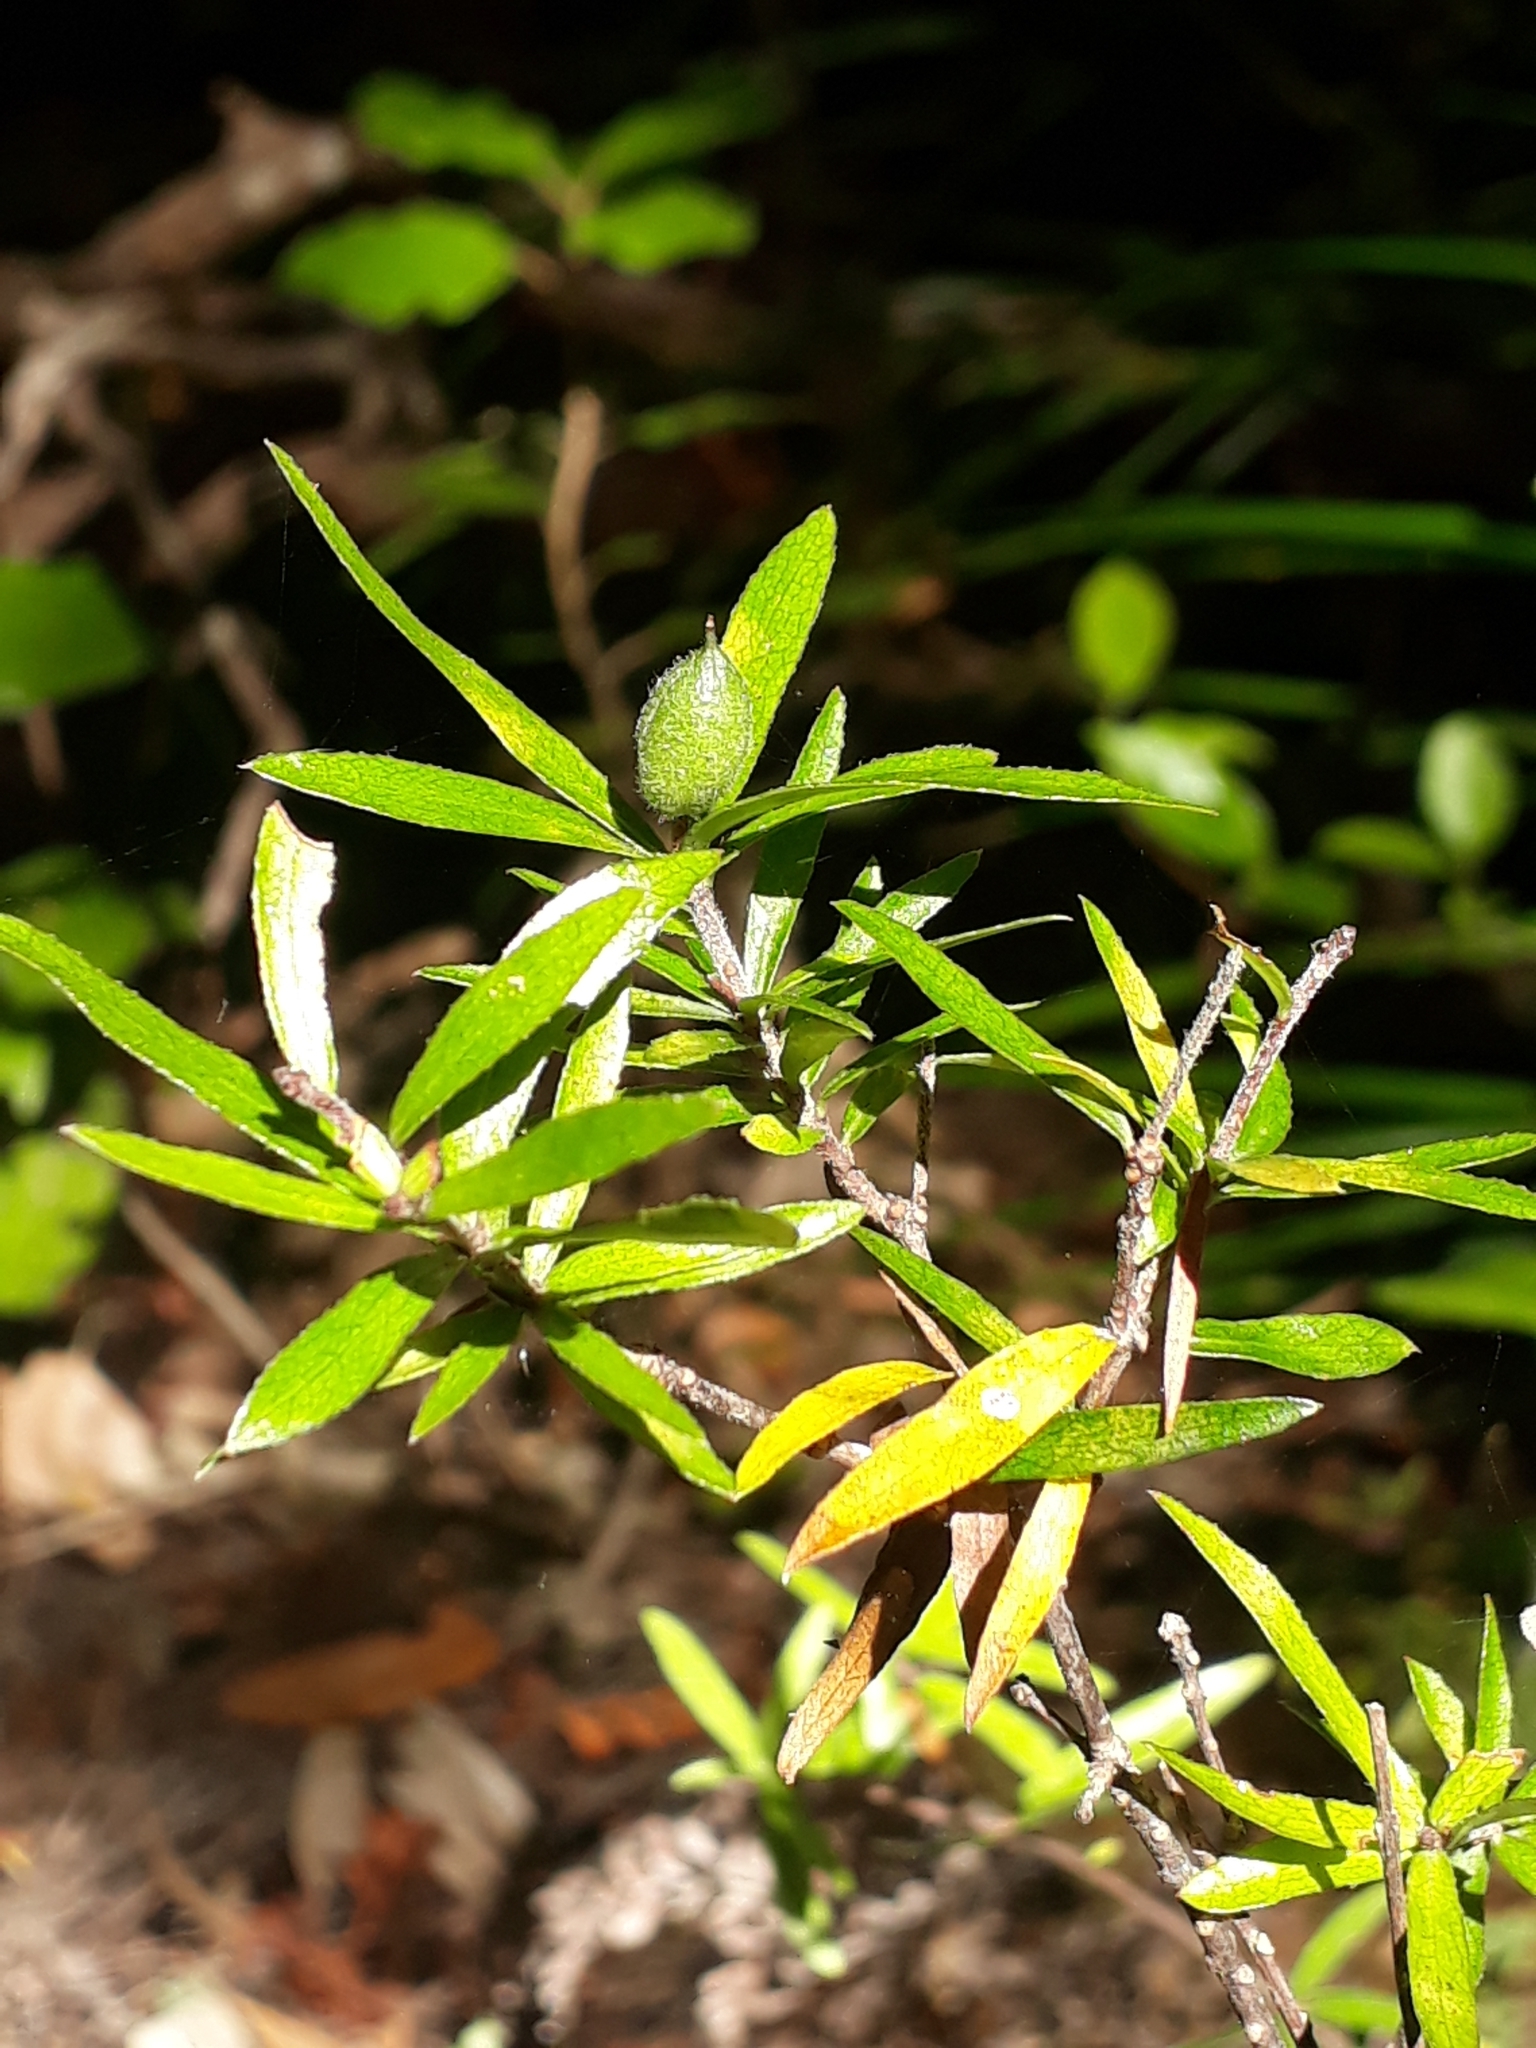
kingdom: Plantae
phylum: Tracheophyta
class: Magnoliopsida
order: Apiales
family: Pittosporaceae
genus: Pittosporum
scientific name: Pittosporum pimeleoides
